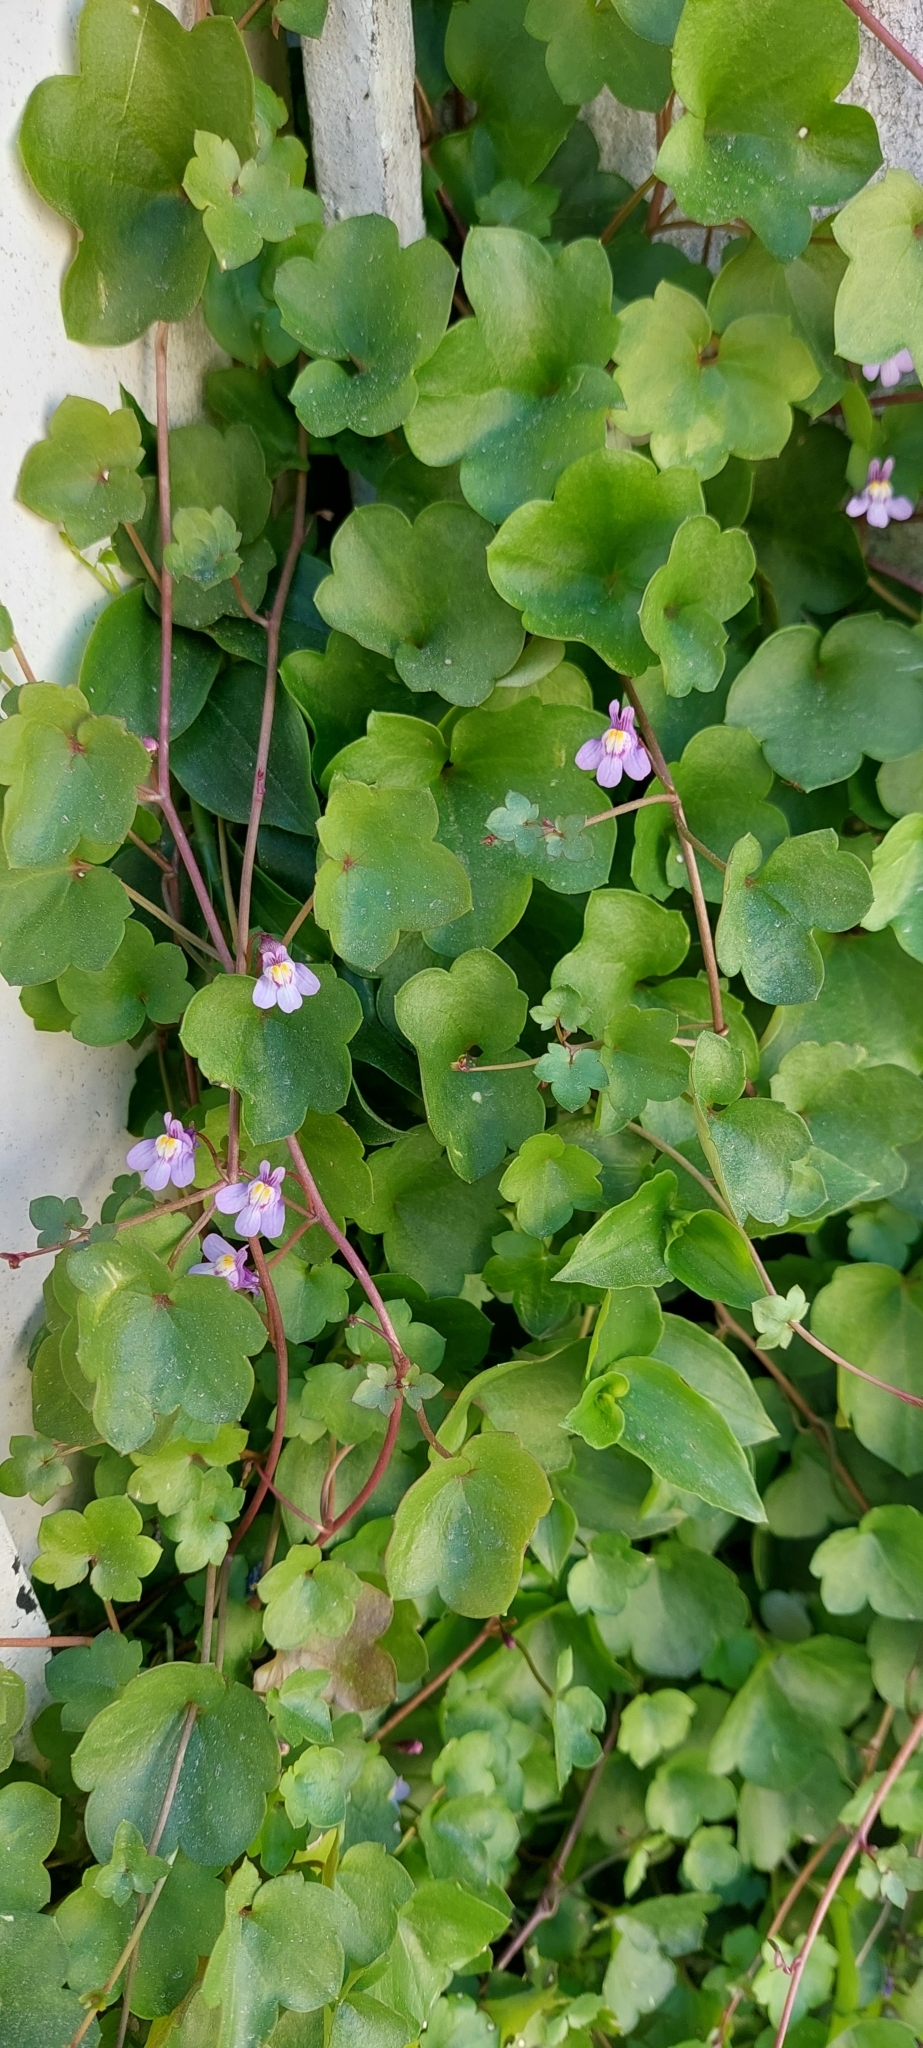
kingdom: Plantae
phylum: Tracheophyta
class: Magnoliopsida
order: Lamiales
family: Plantaginaceae
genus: Cymbalaria
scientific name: Cymbalaria muralis
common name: Ivy-leaved toadflax
